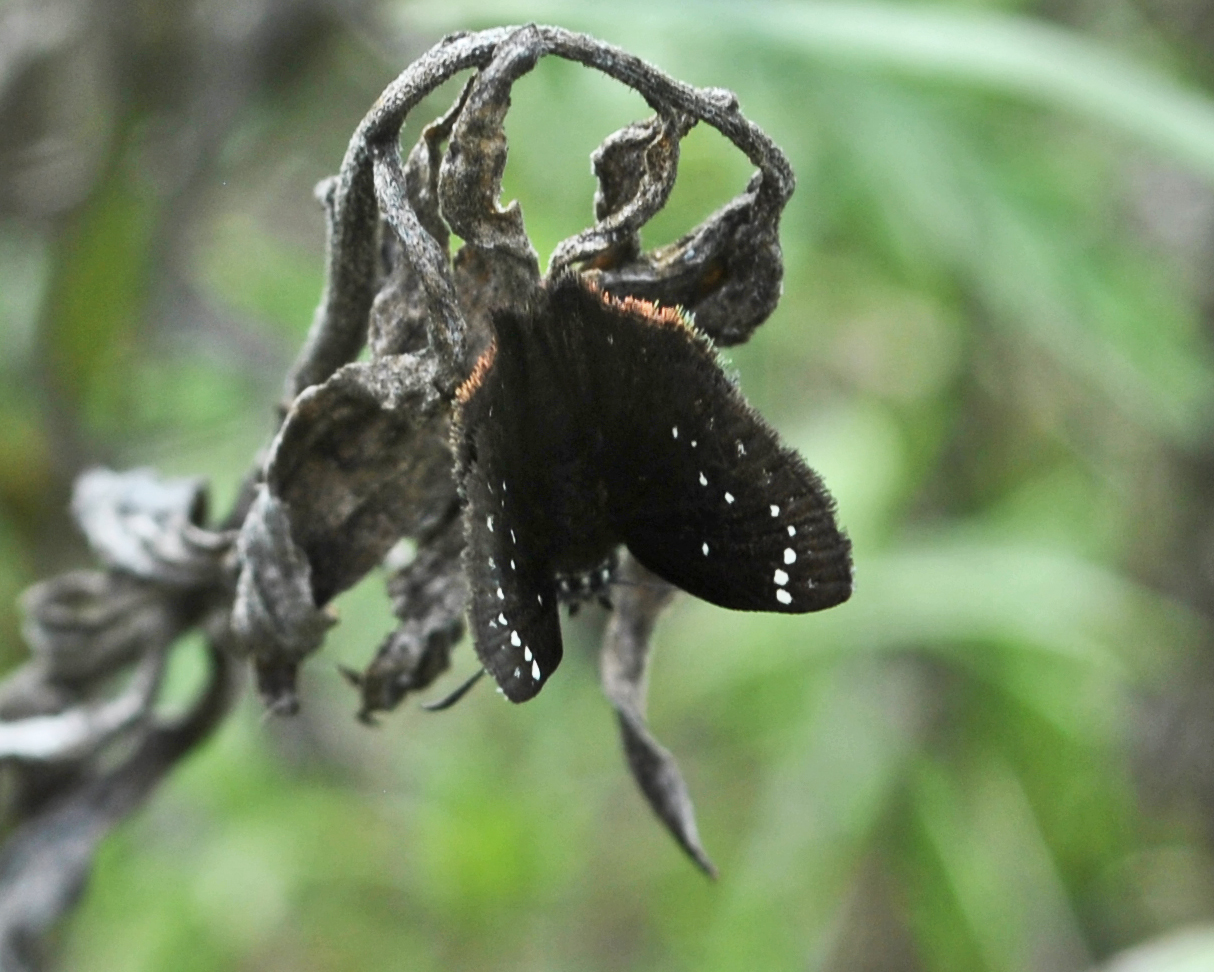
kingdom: Animalia
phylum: Arthropoda
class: Insecta
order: Lepidoptera
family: Hesperiidae
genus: Pholisora
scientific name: Pholisora catullus
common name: Common sootywing
